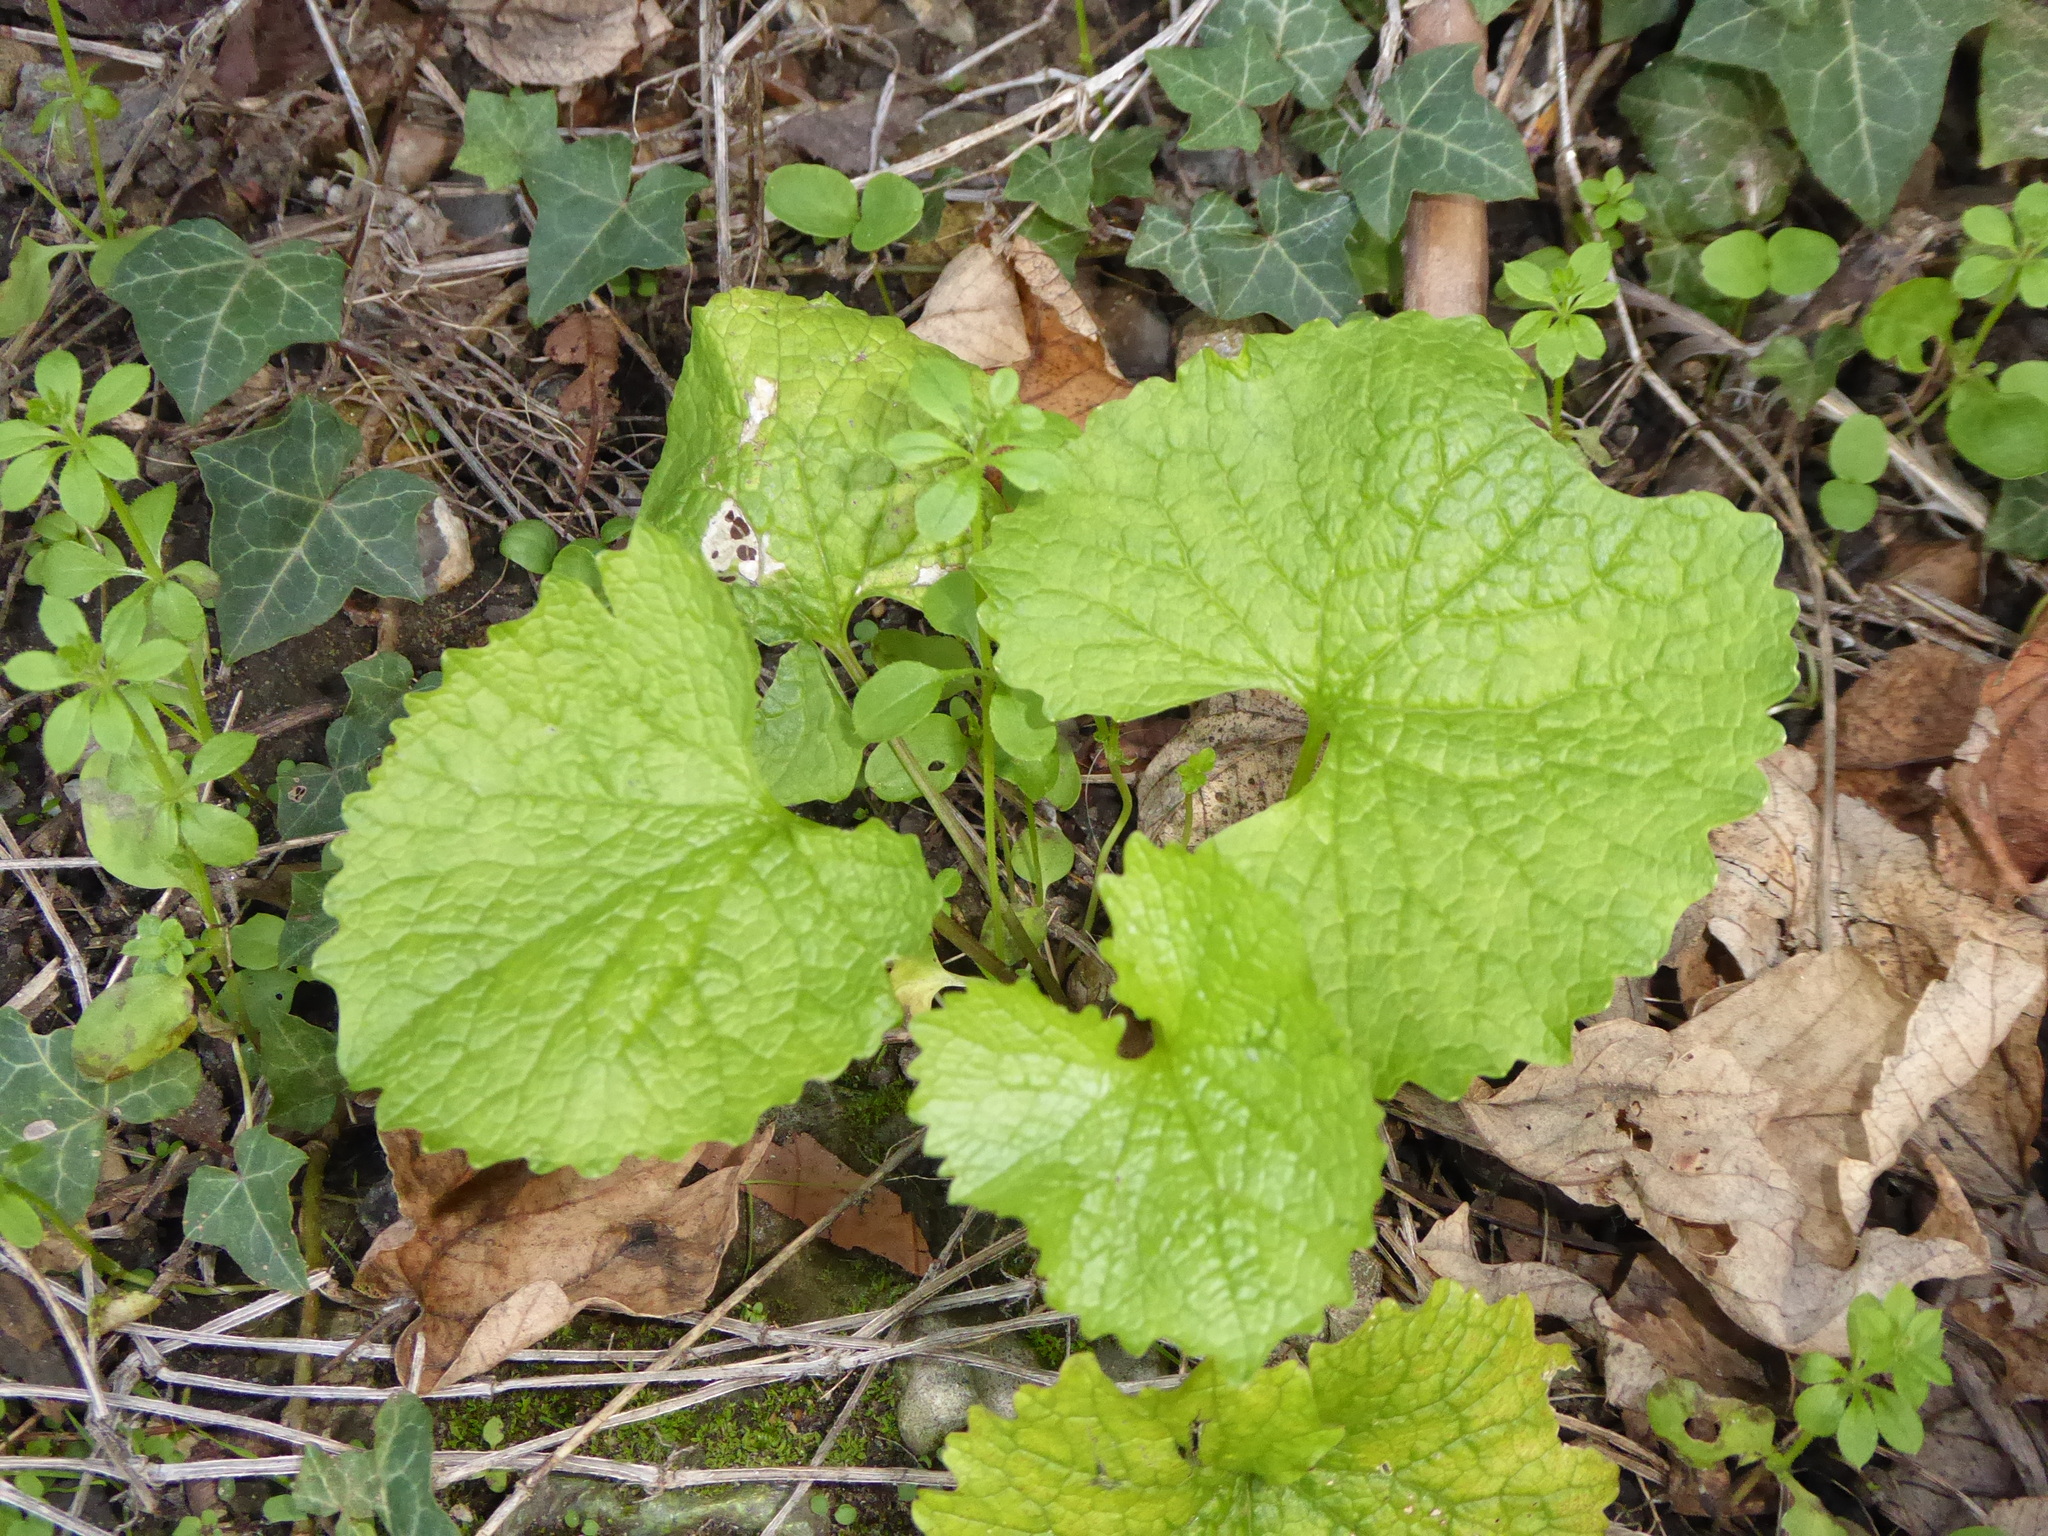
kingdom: Plantae
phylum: Tracheophyta
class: Magnoliopsida
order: Brassicales
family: Brassicaceae
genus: Alliaria
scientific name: Alliaria petiolata
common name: Garlic mustard
